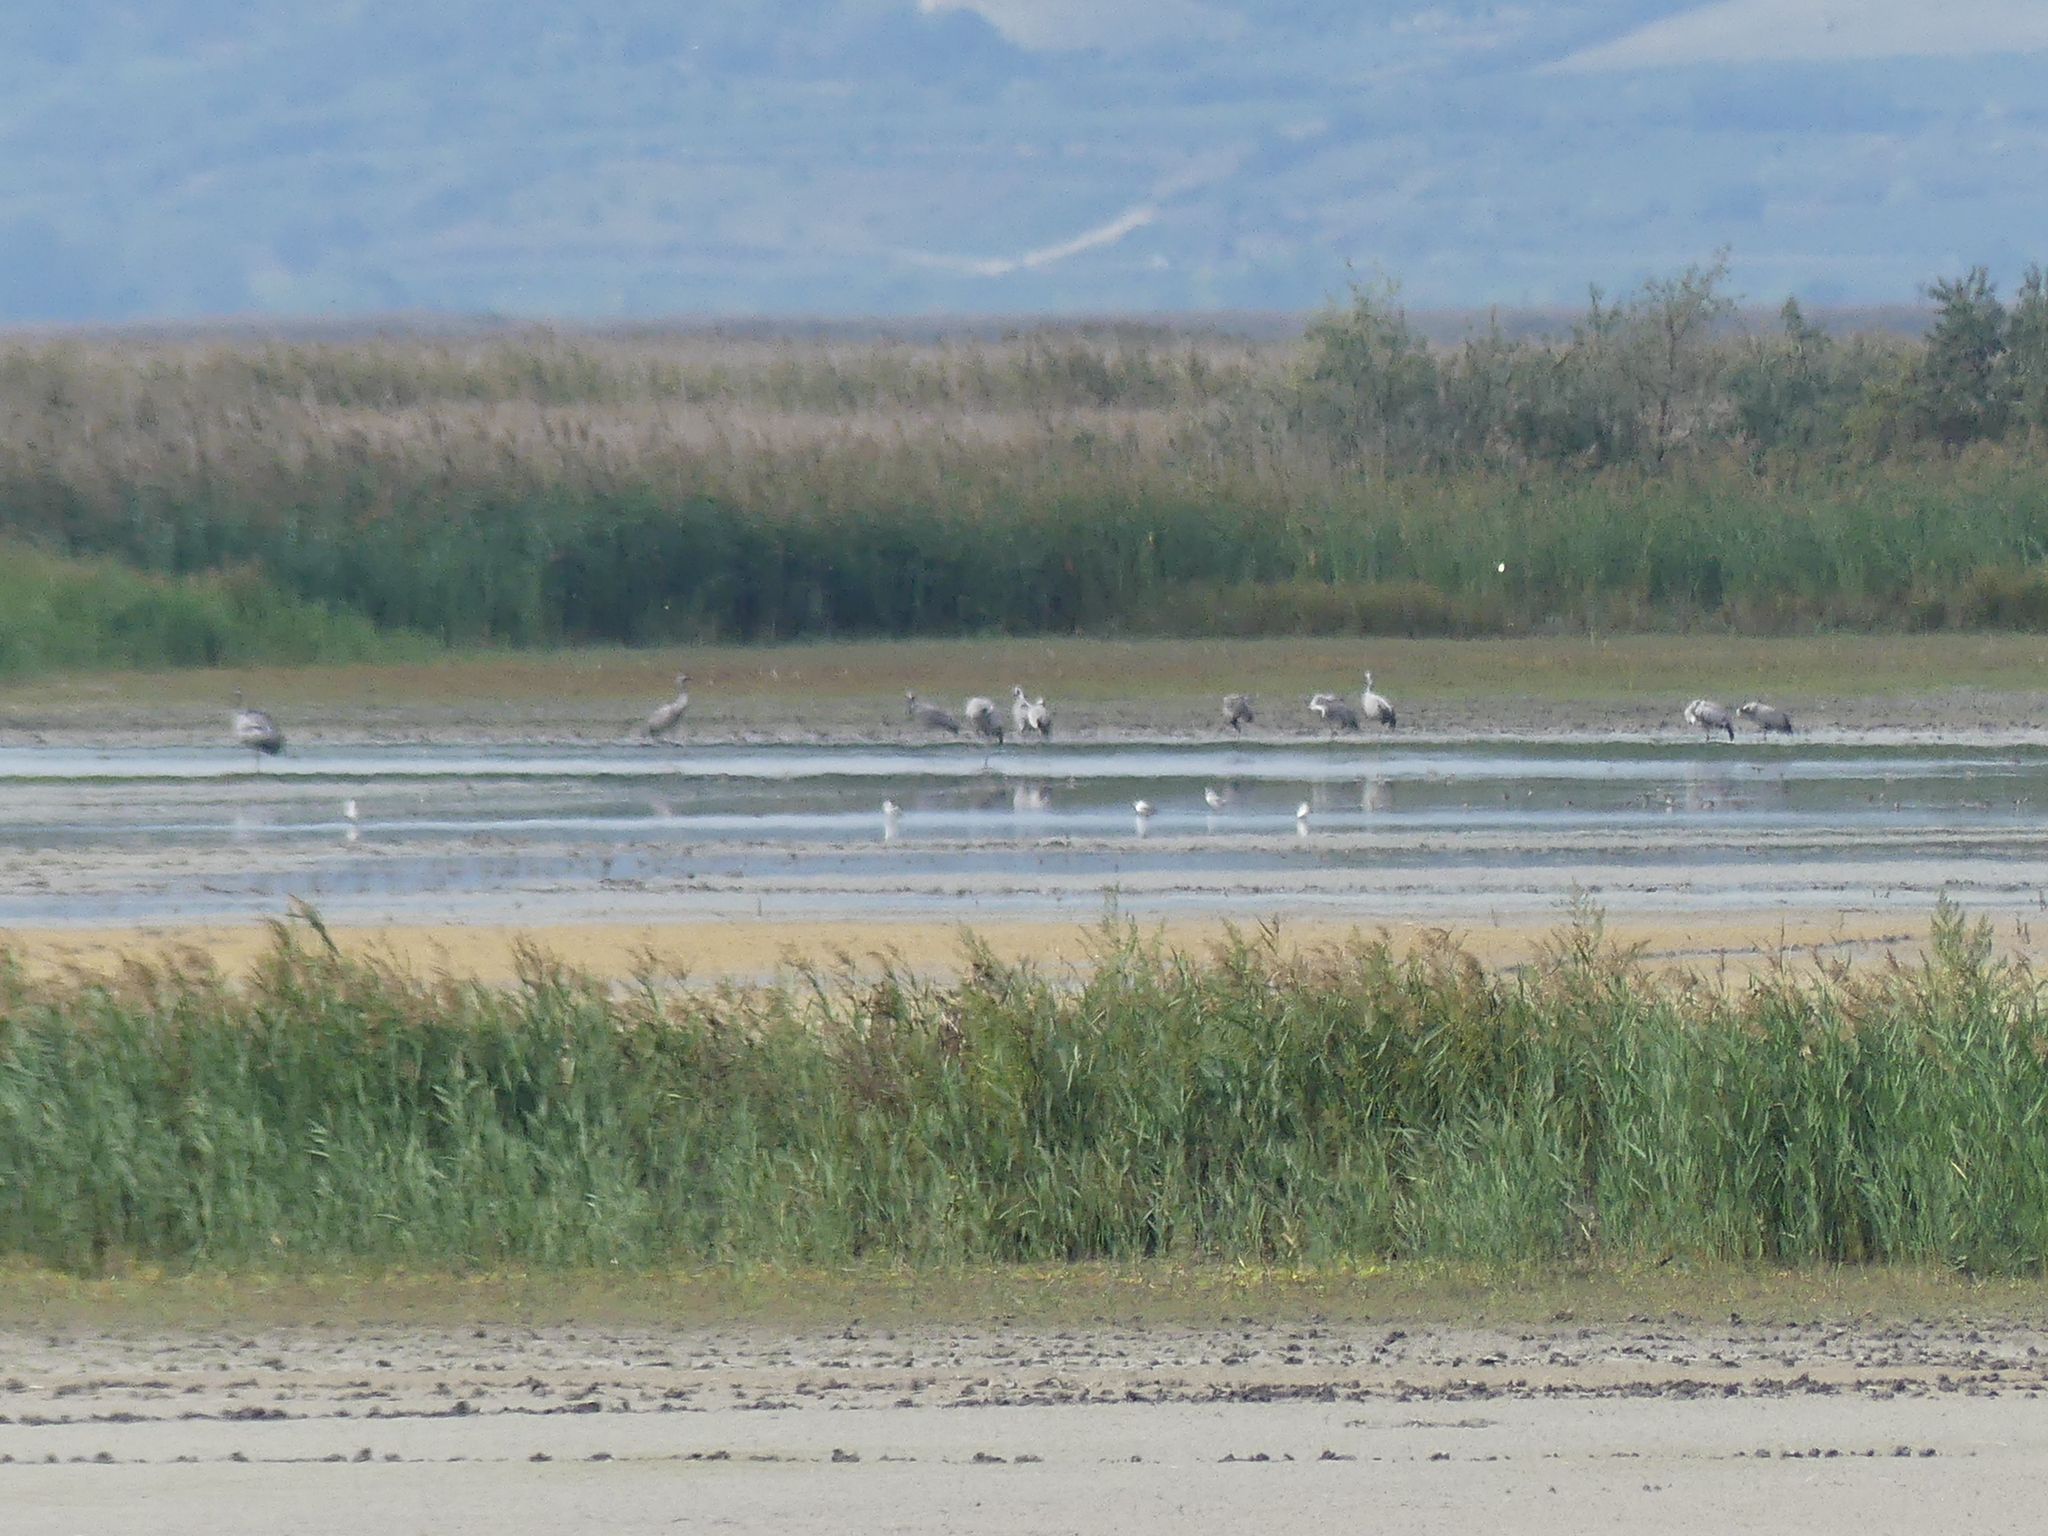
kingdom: Animalia
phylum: Chordata
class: Aves
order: Gruiformes
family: Gruidae
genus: Grus
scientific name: Grus grus
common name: Common crane
